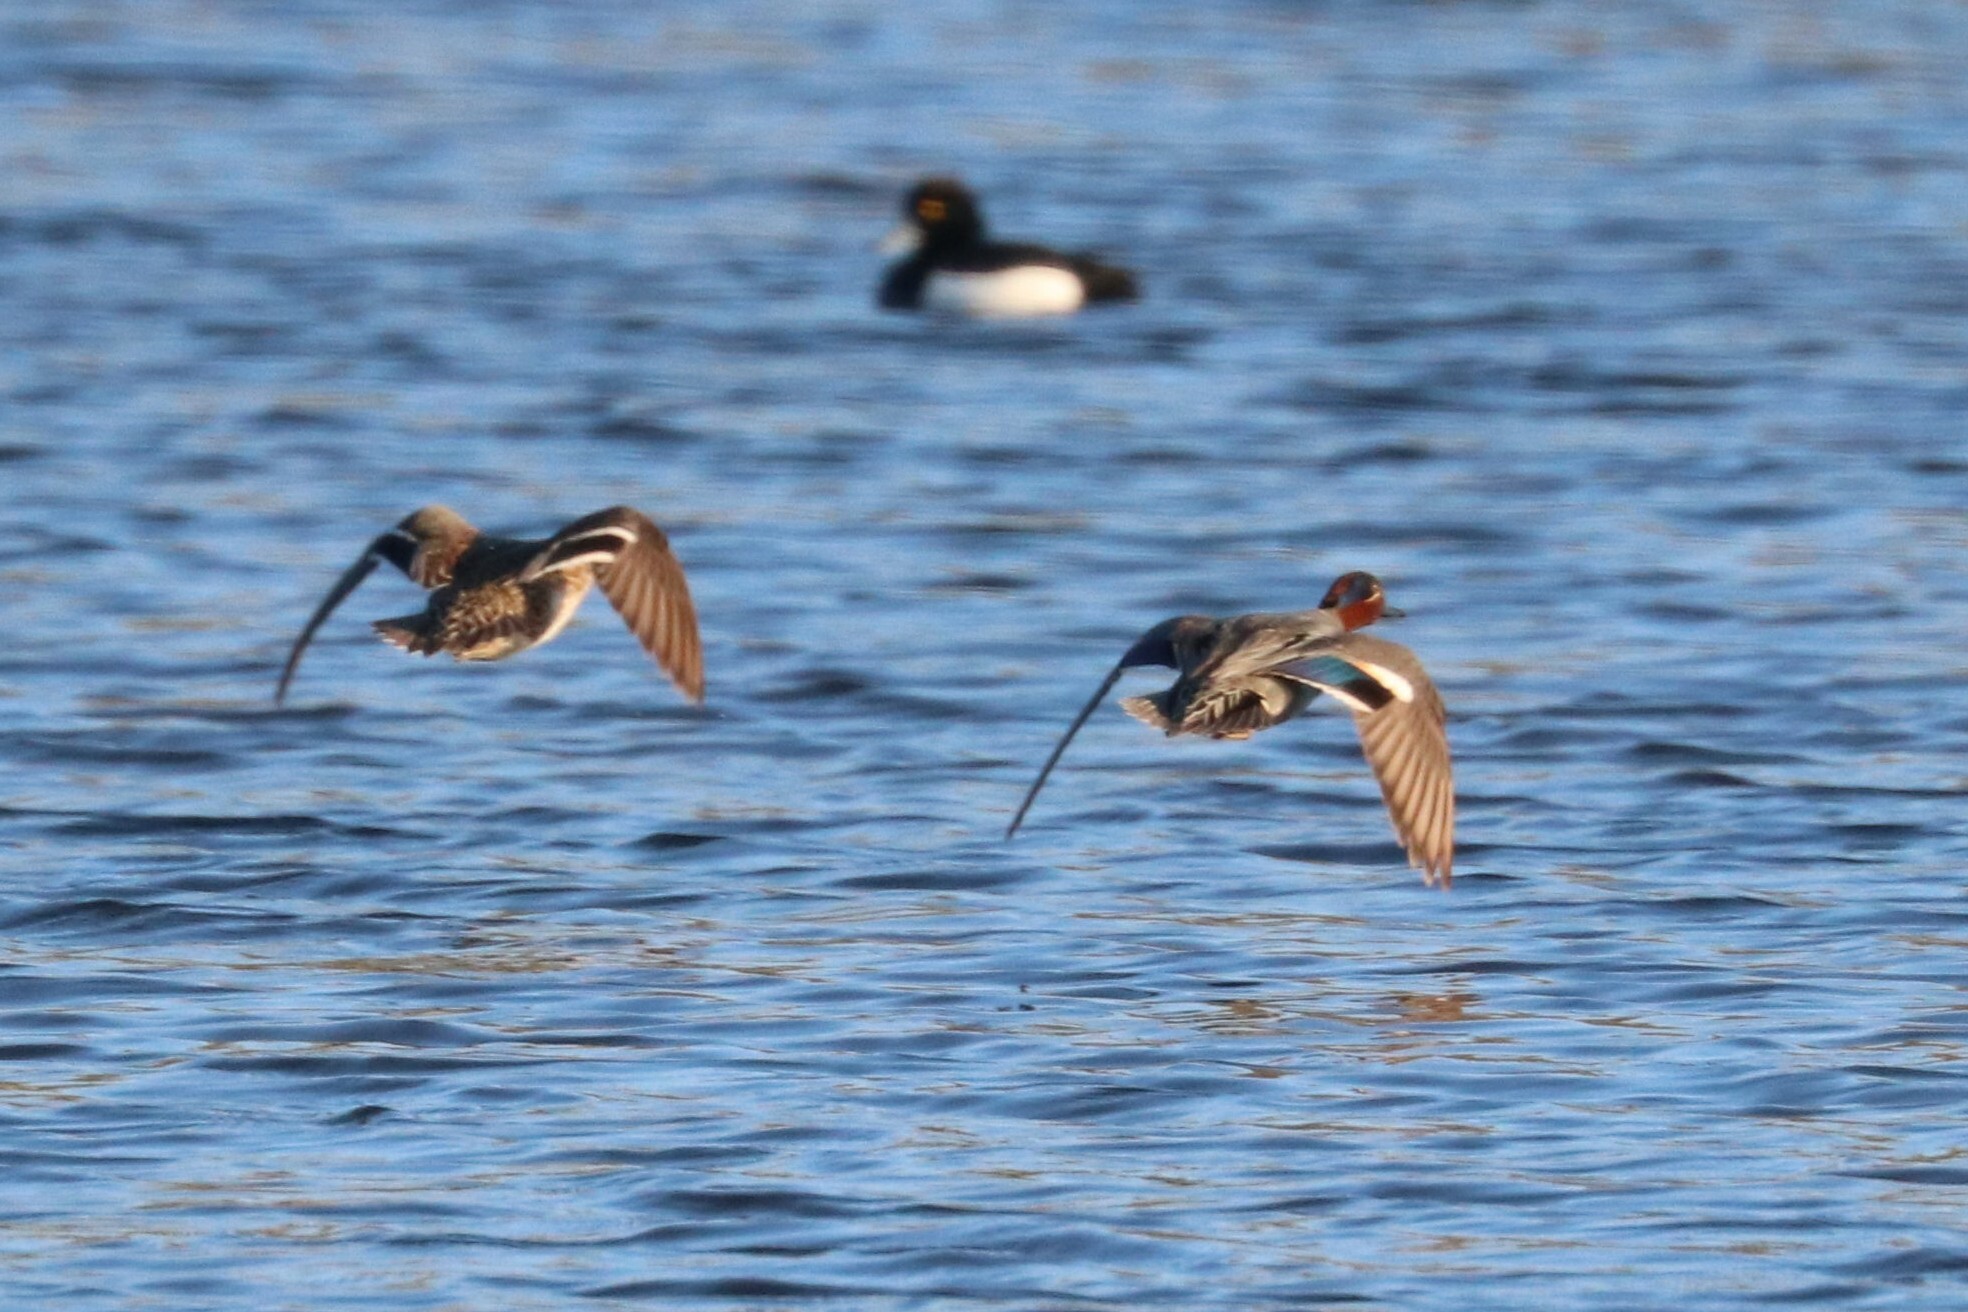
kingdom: Animalia
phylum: Chordata
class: Aves
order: Anseriformes
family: Anatidae
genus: Anas
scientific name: Anas crecca
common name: Eurasian teal
